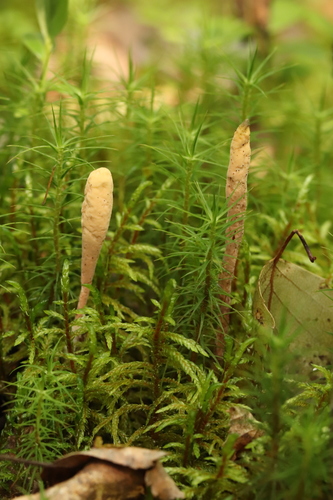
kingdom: Fungi
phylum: Basidiomycota
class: Agaricomycetes
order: Gomphales
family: Clavariadelphaceae
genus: Clavariadelphus
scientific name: Clavariadelphus ligula
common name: Ochre club
